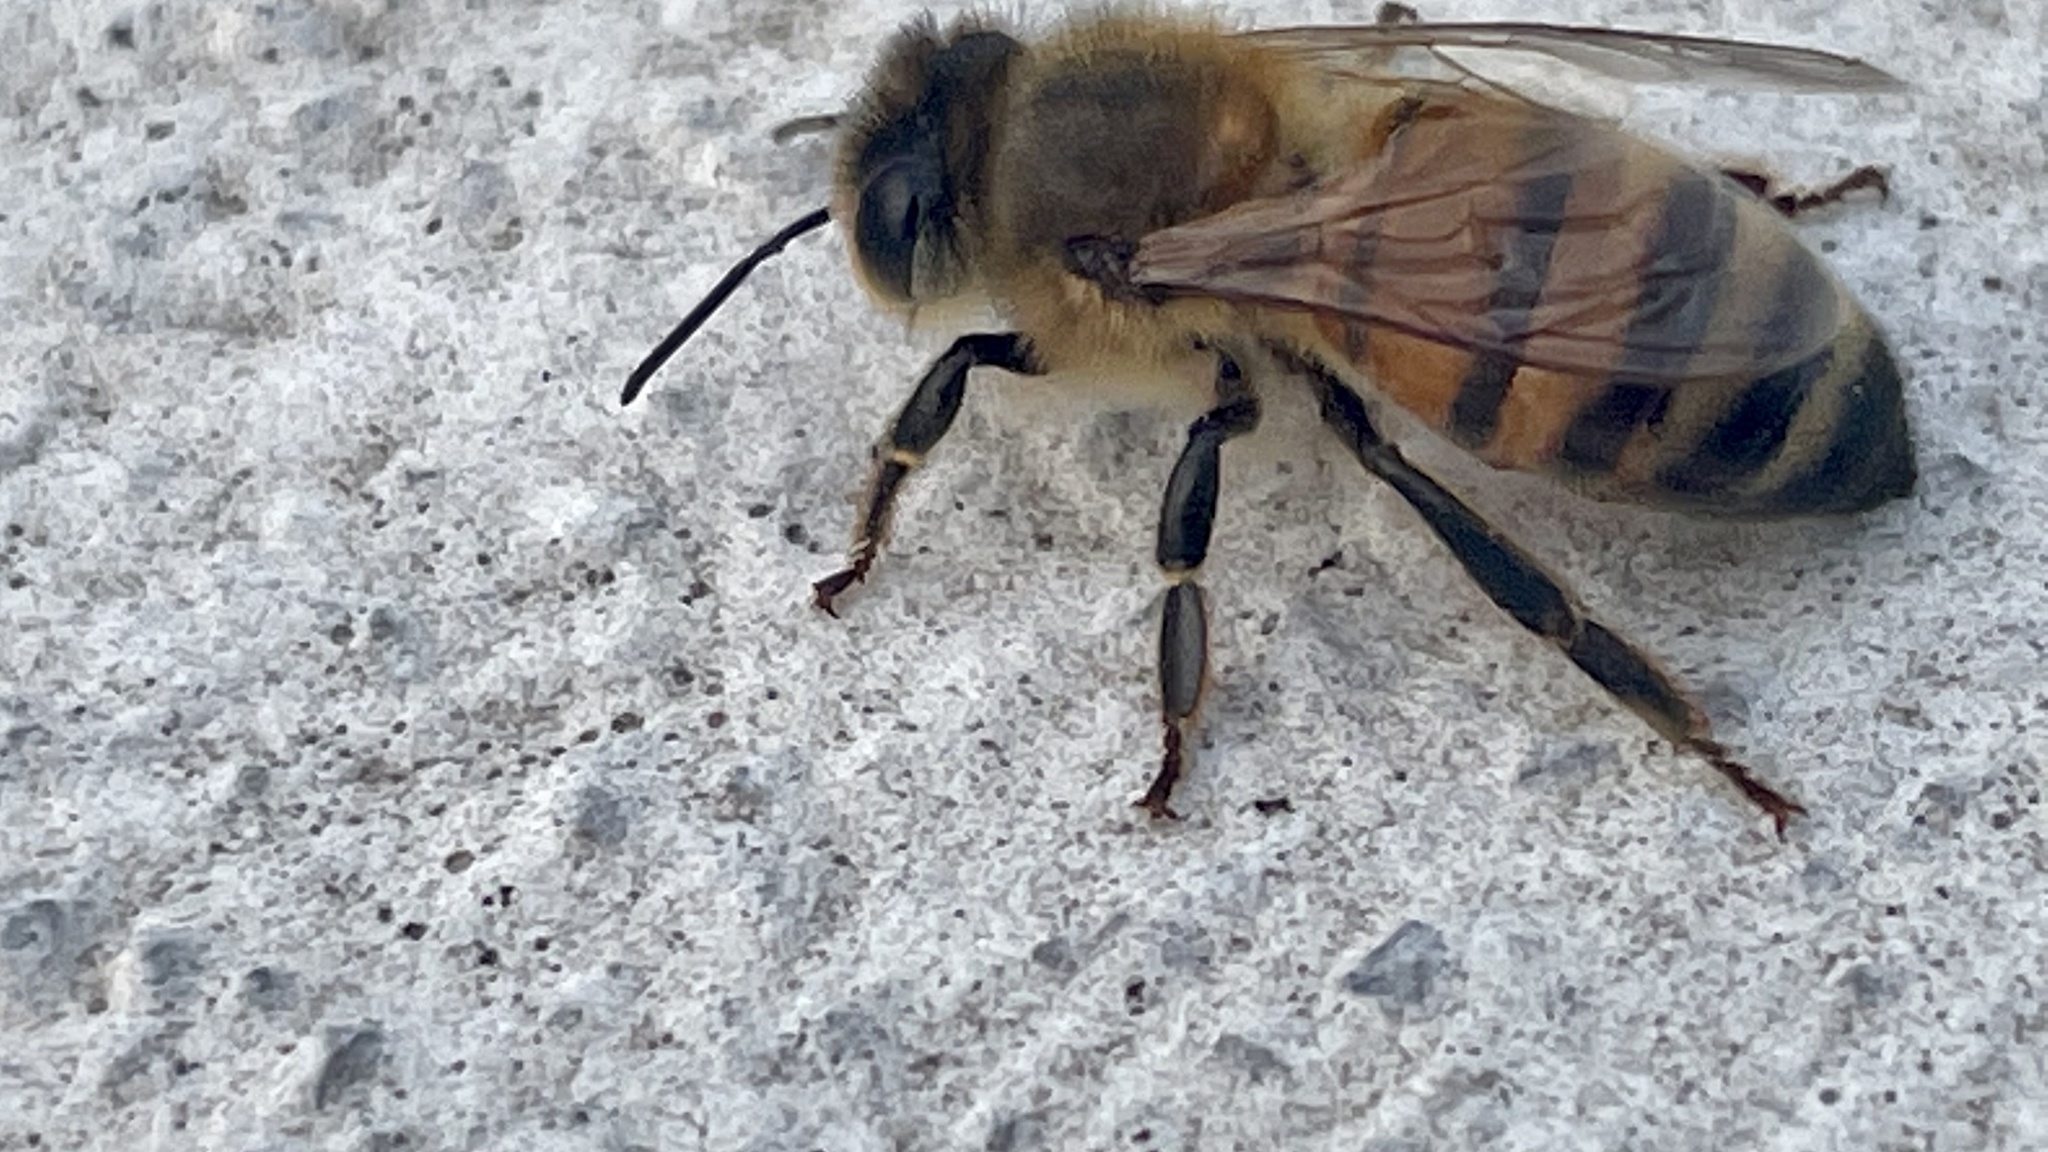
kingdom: Animalia
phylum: Arthropoda
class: Insecta
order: Hymenoptera
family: Apidae
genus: Apis
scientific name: Apis mellifera
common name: Honey bee
